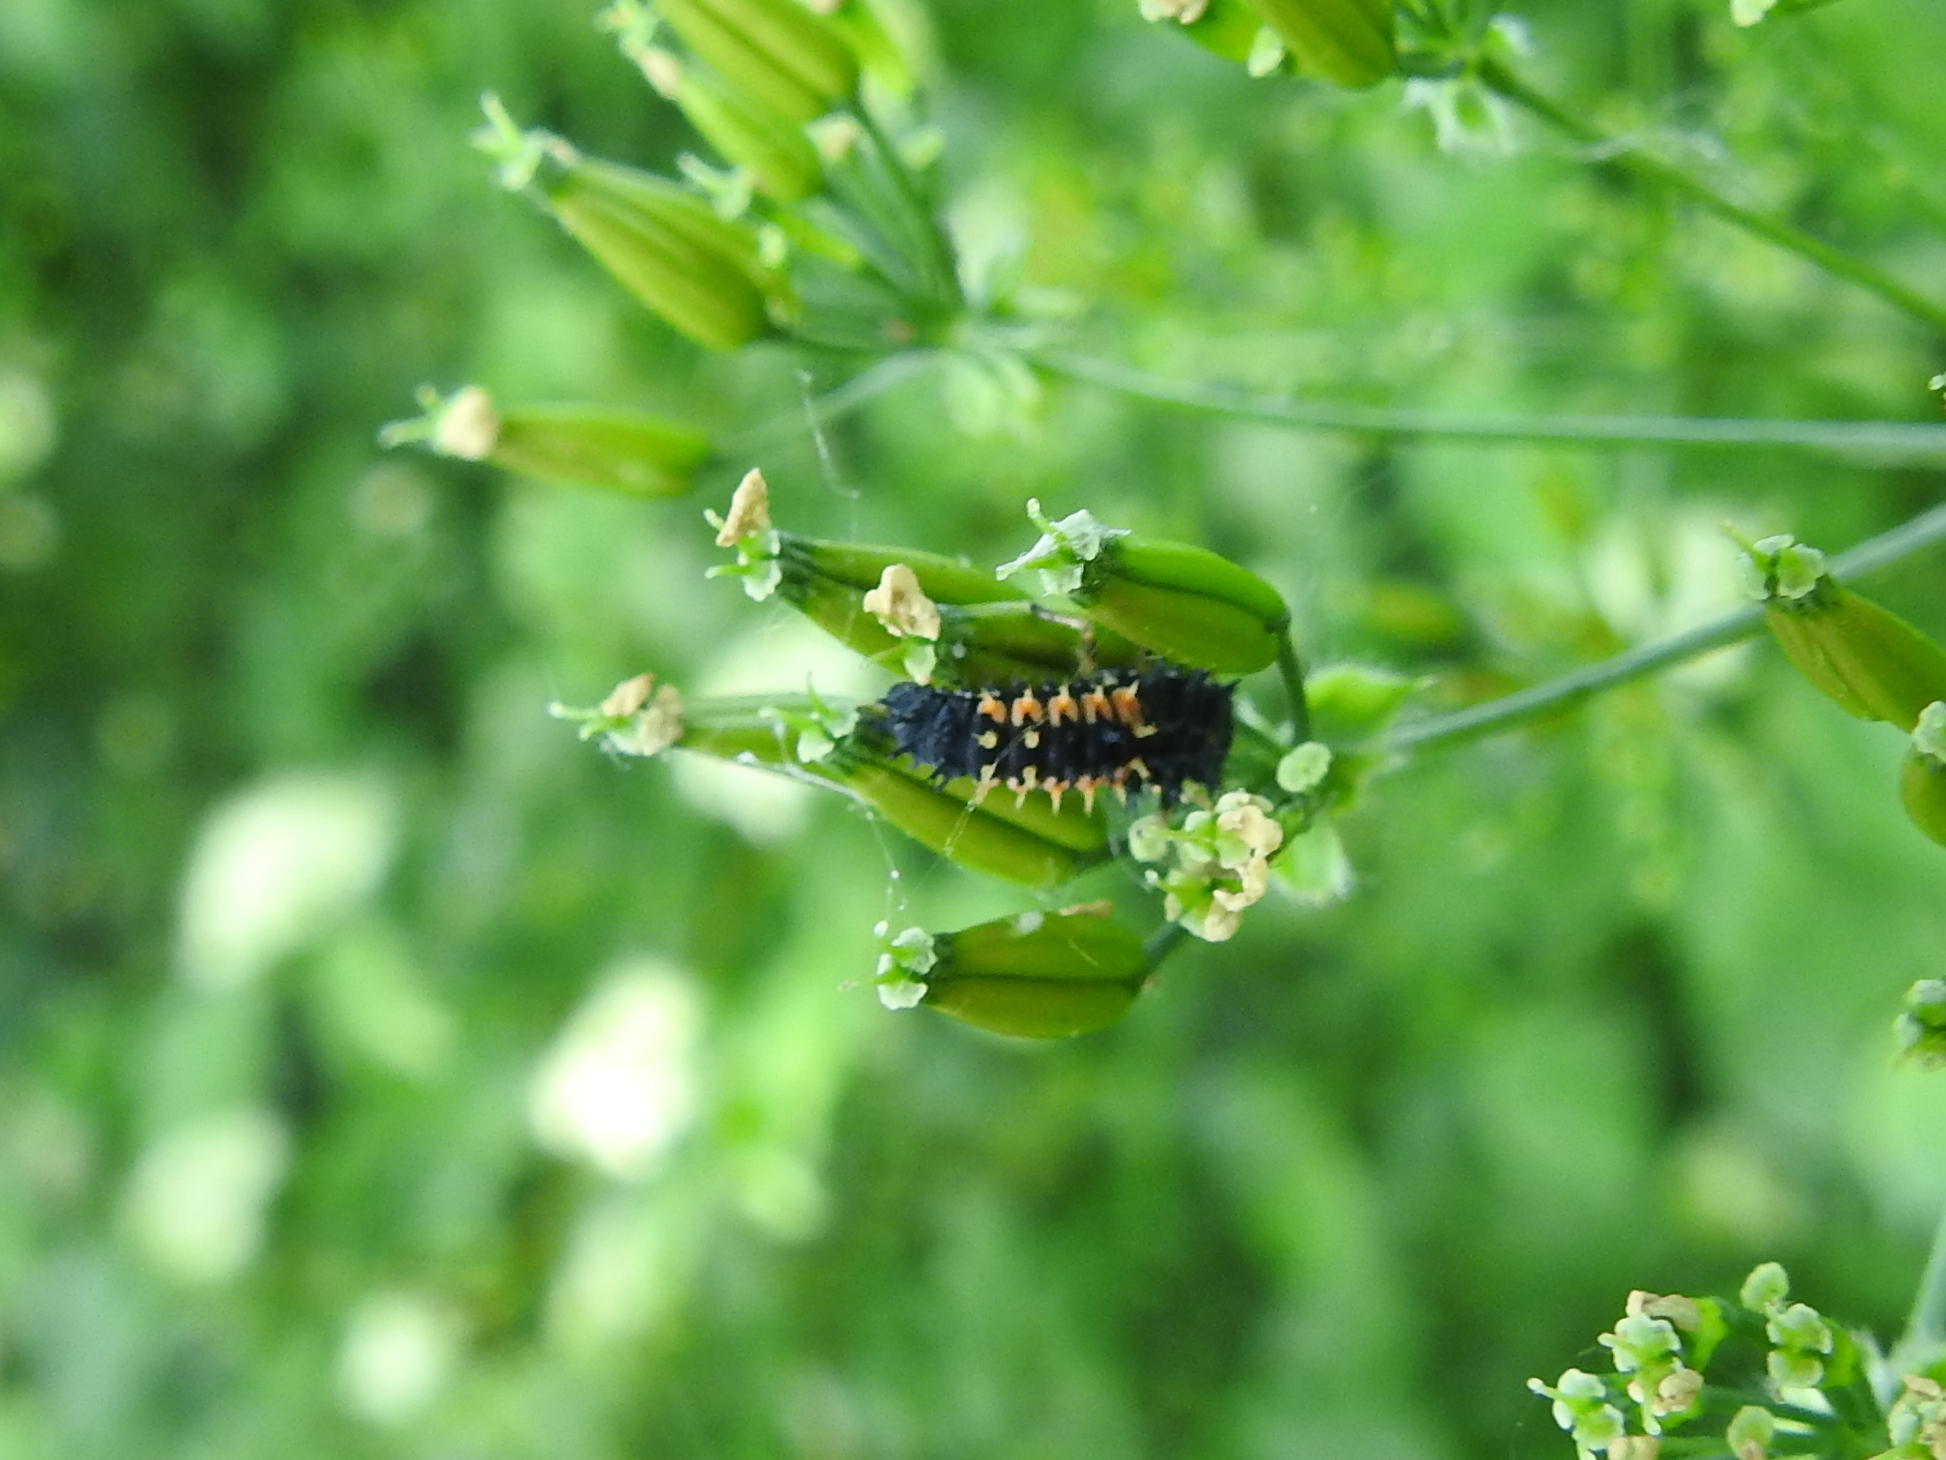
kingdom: Animalia
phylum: Arthropoda
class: Insecta
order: Coleoptera
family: Coccinellidae
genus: Harmonia
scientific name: Harmonia axyridis
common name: Harlequin ladybird
